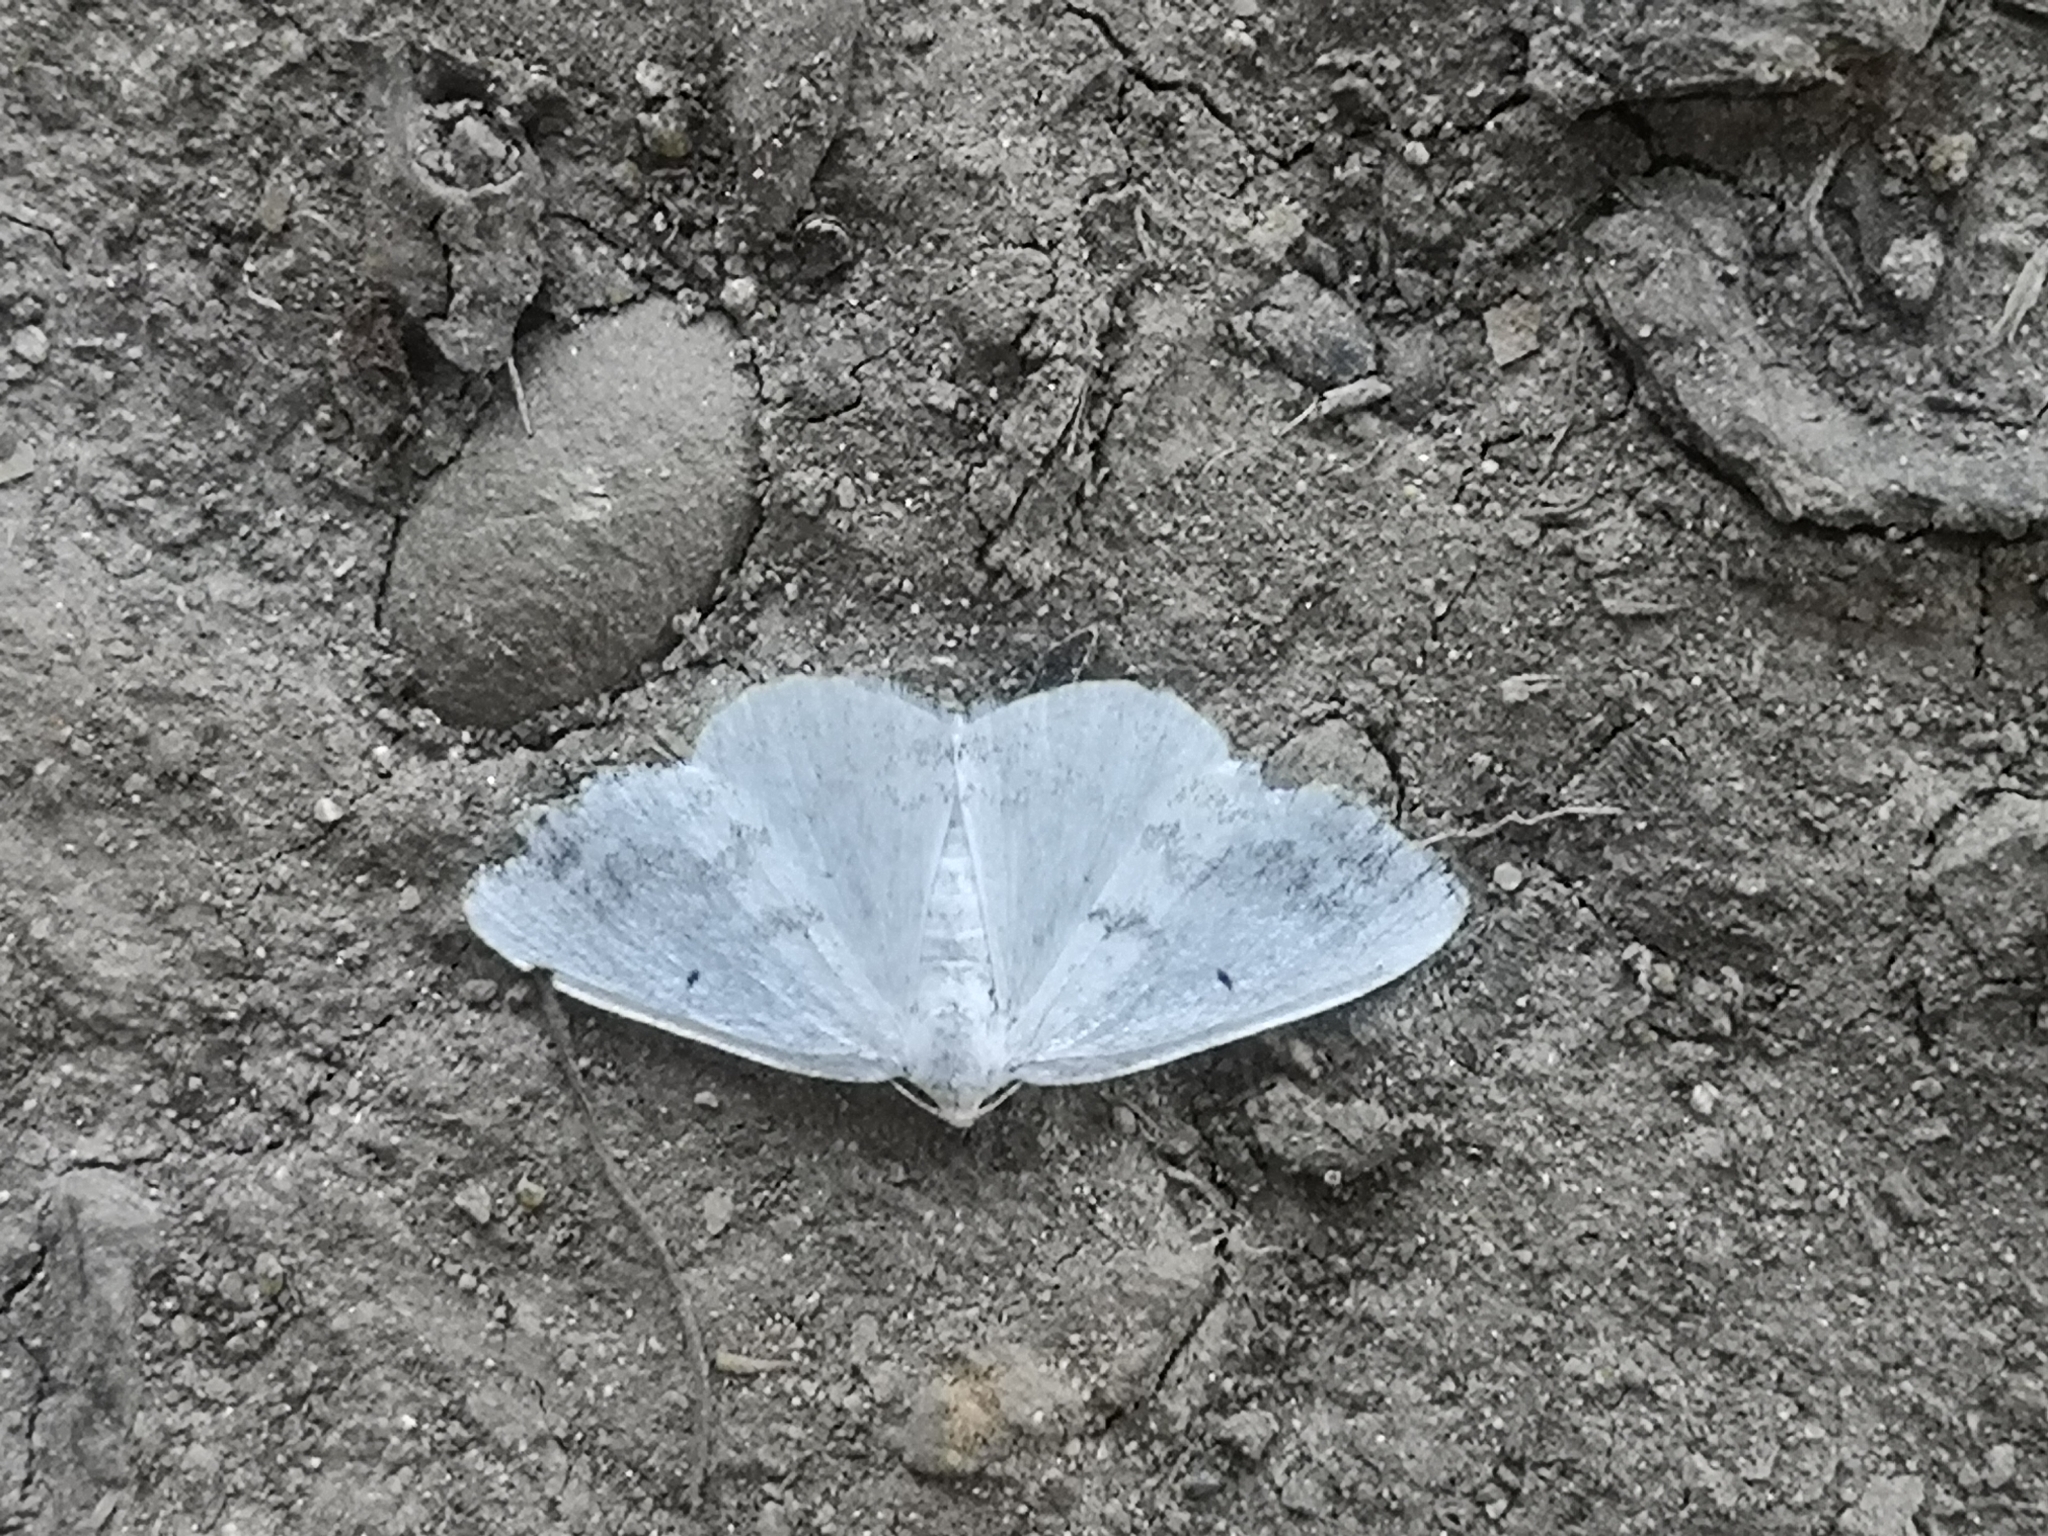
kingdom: Animalia
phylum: Arthropoda
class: Insecta
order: Lepidoptera
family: Geometridae
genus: Lomographa
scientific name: Lomographa temerata
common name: Clouded silver
